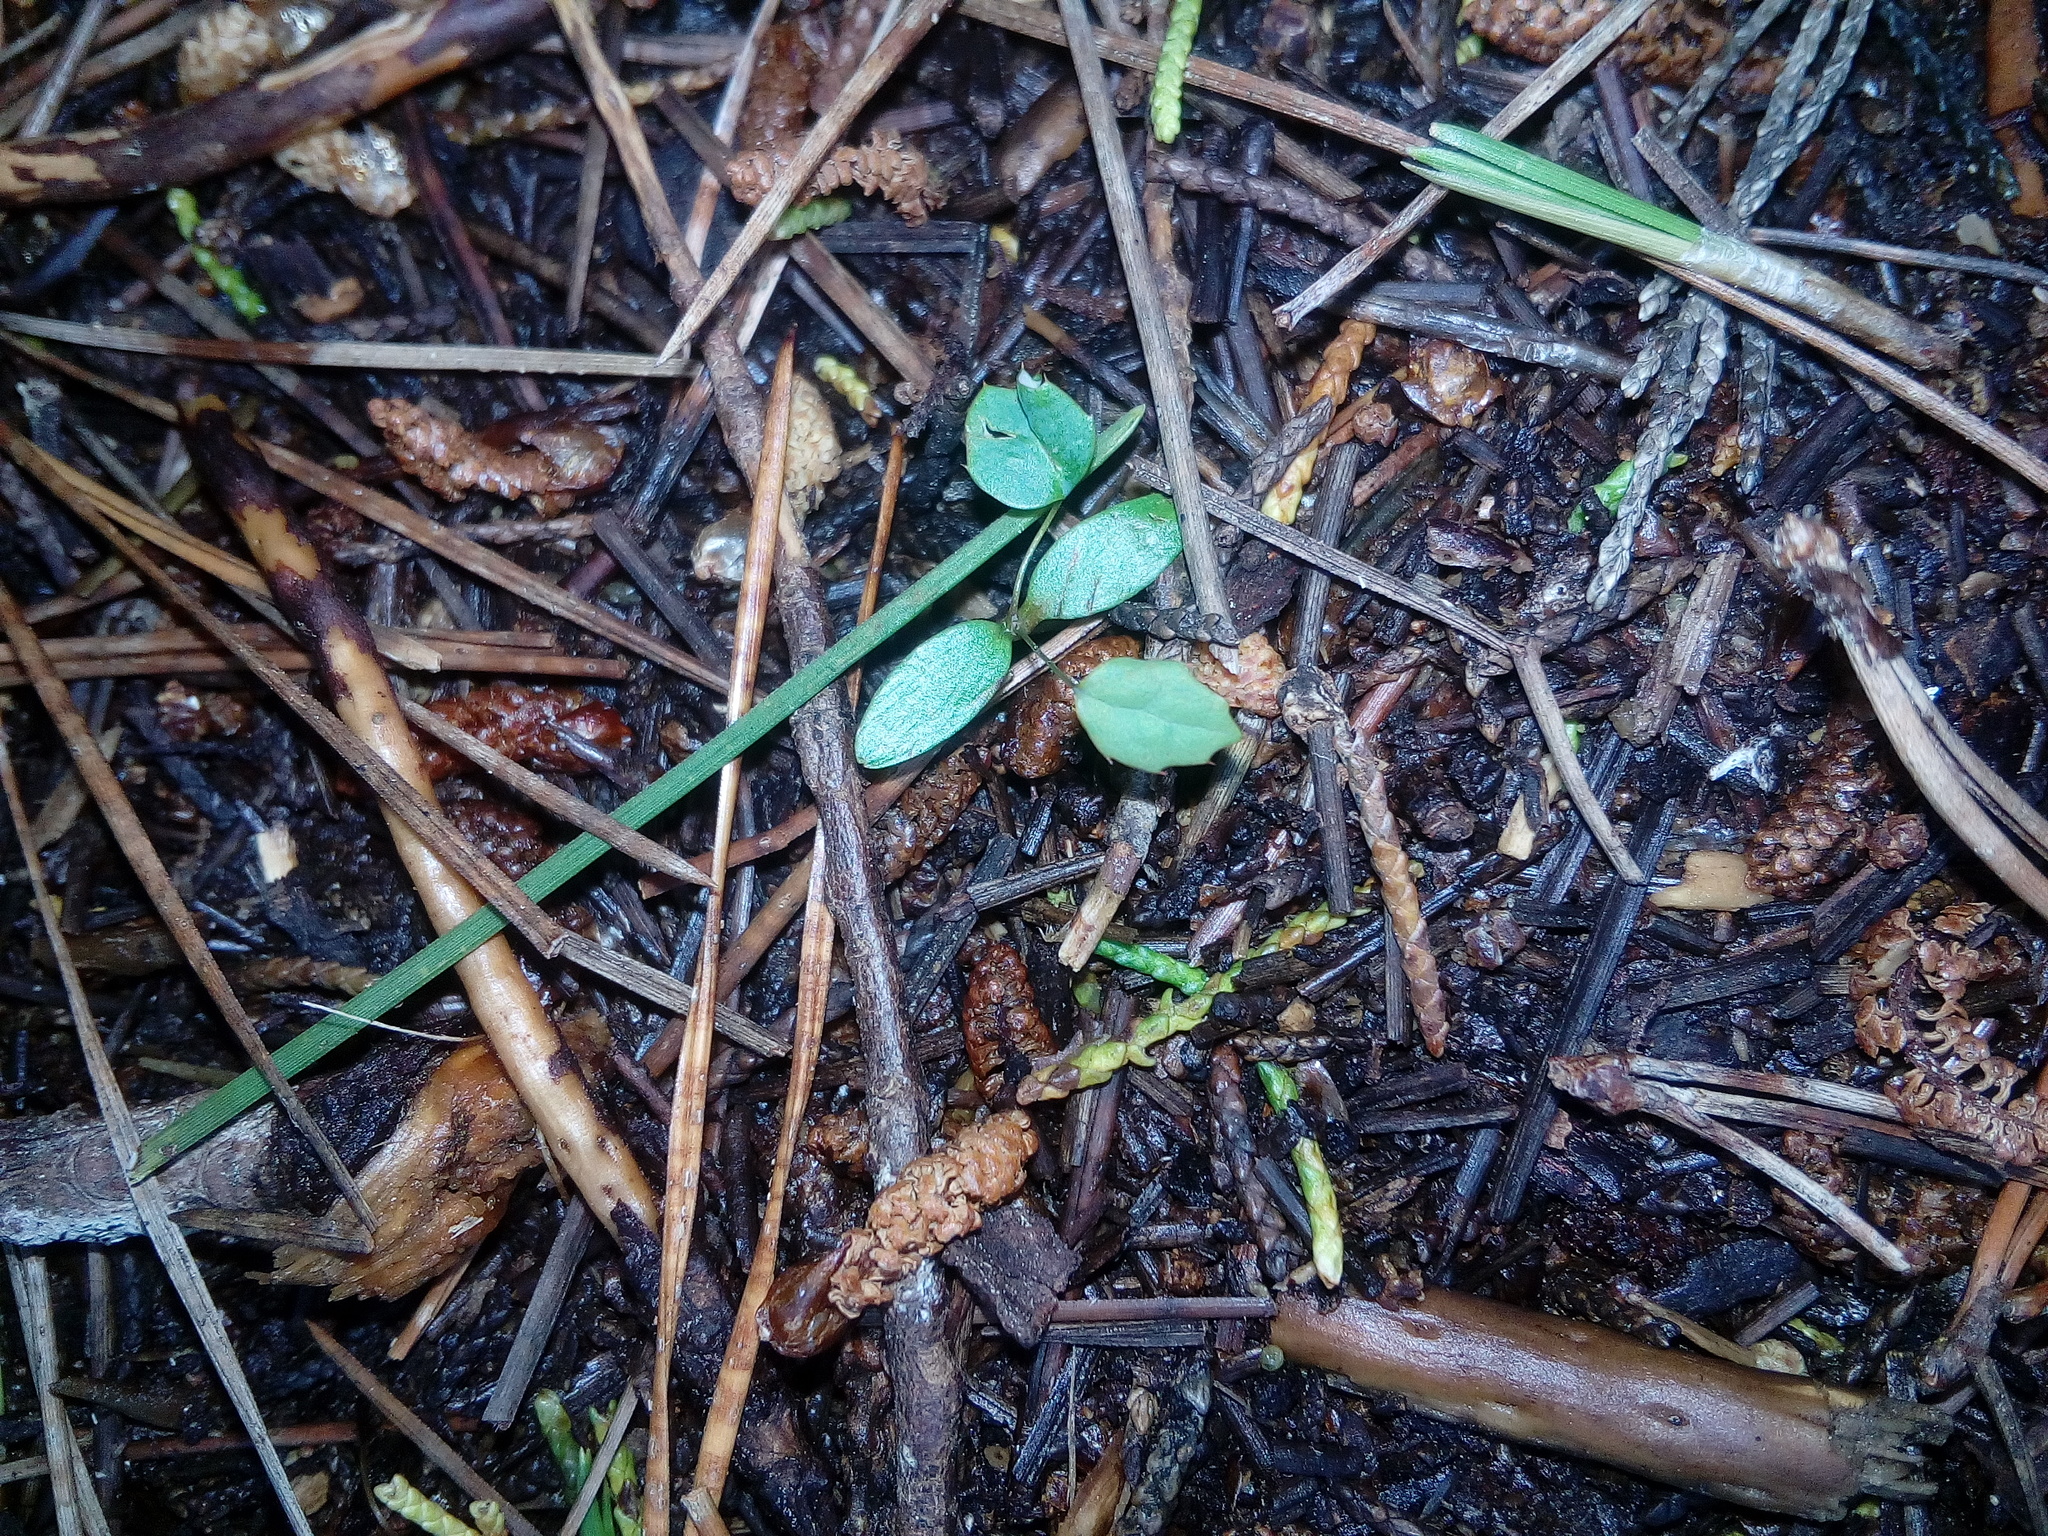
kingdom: Plantae
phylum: Tracheophyta
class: Magnoliopsida
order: Ranunculales
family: Berberidaceae
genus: Berberis
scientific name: Berberis darwinii
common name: Darwin's barberry
